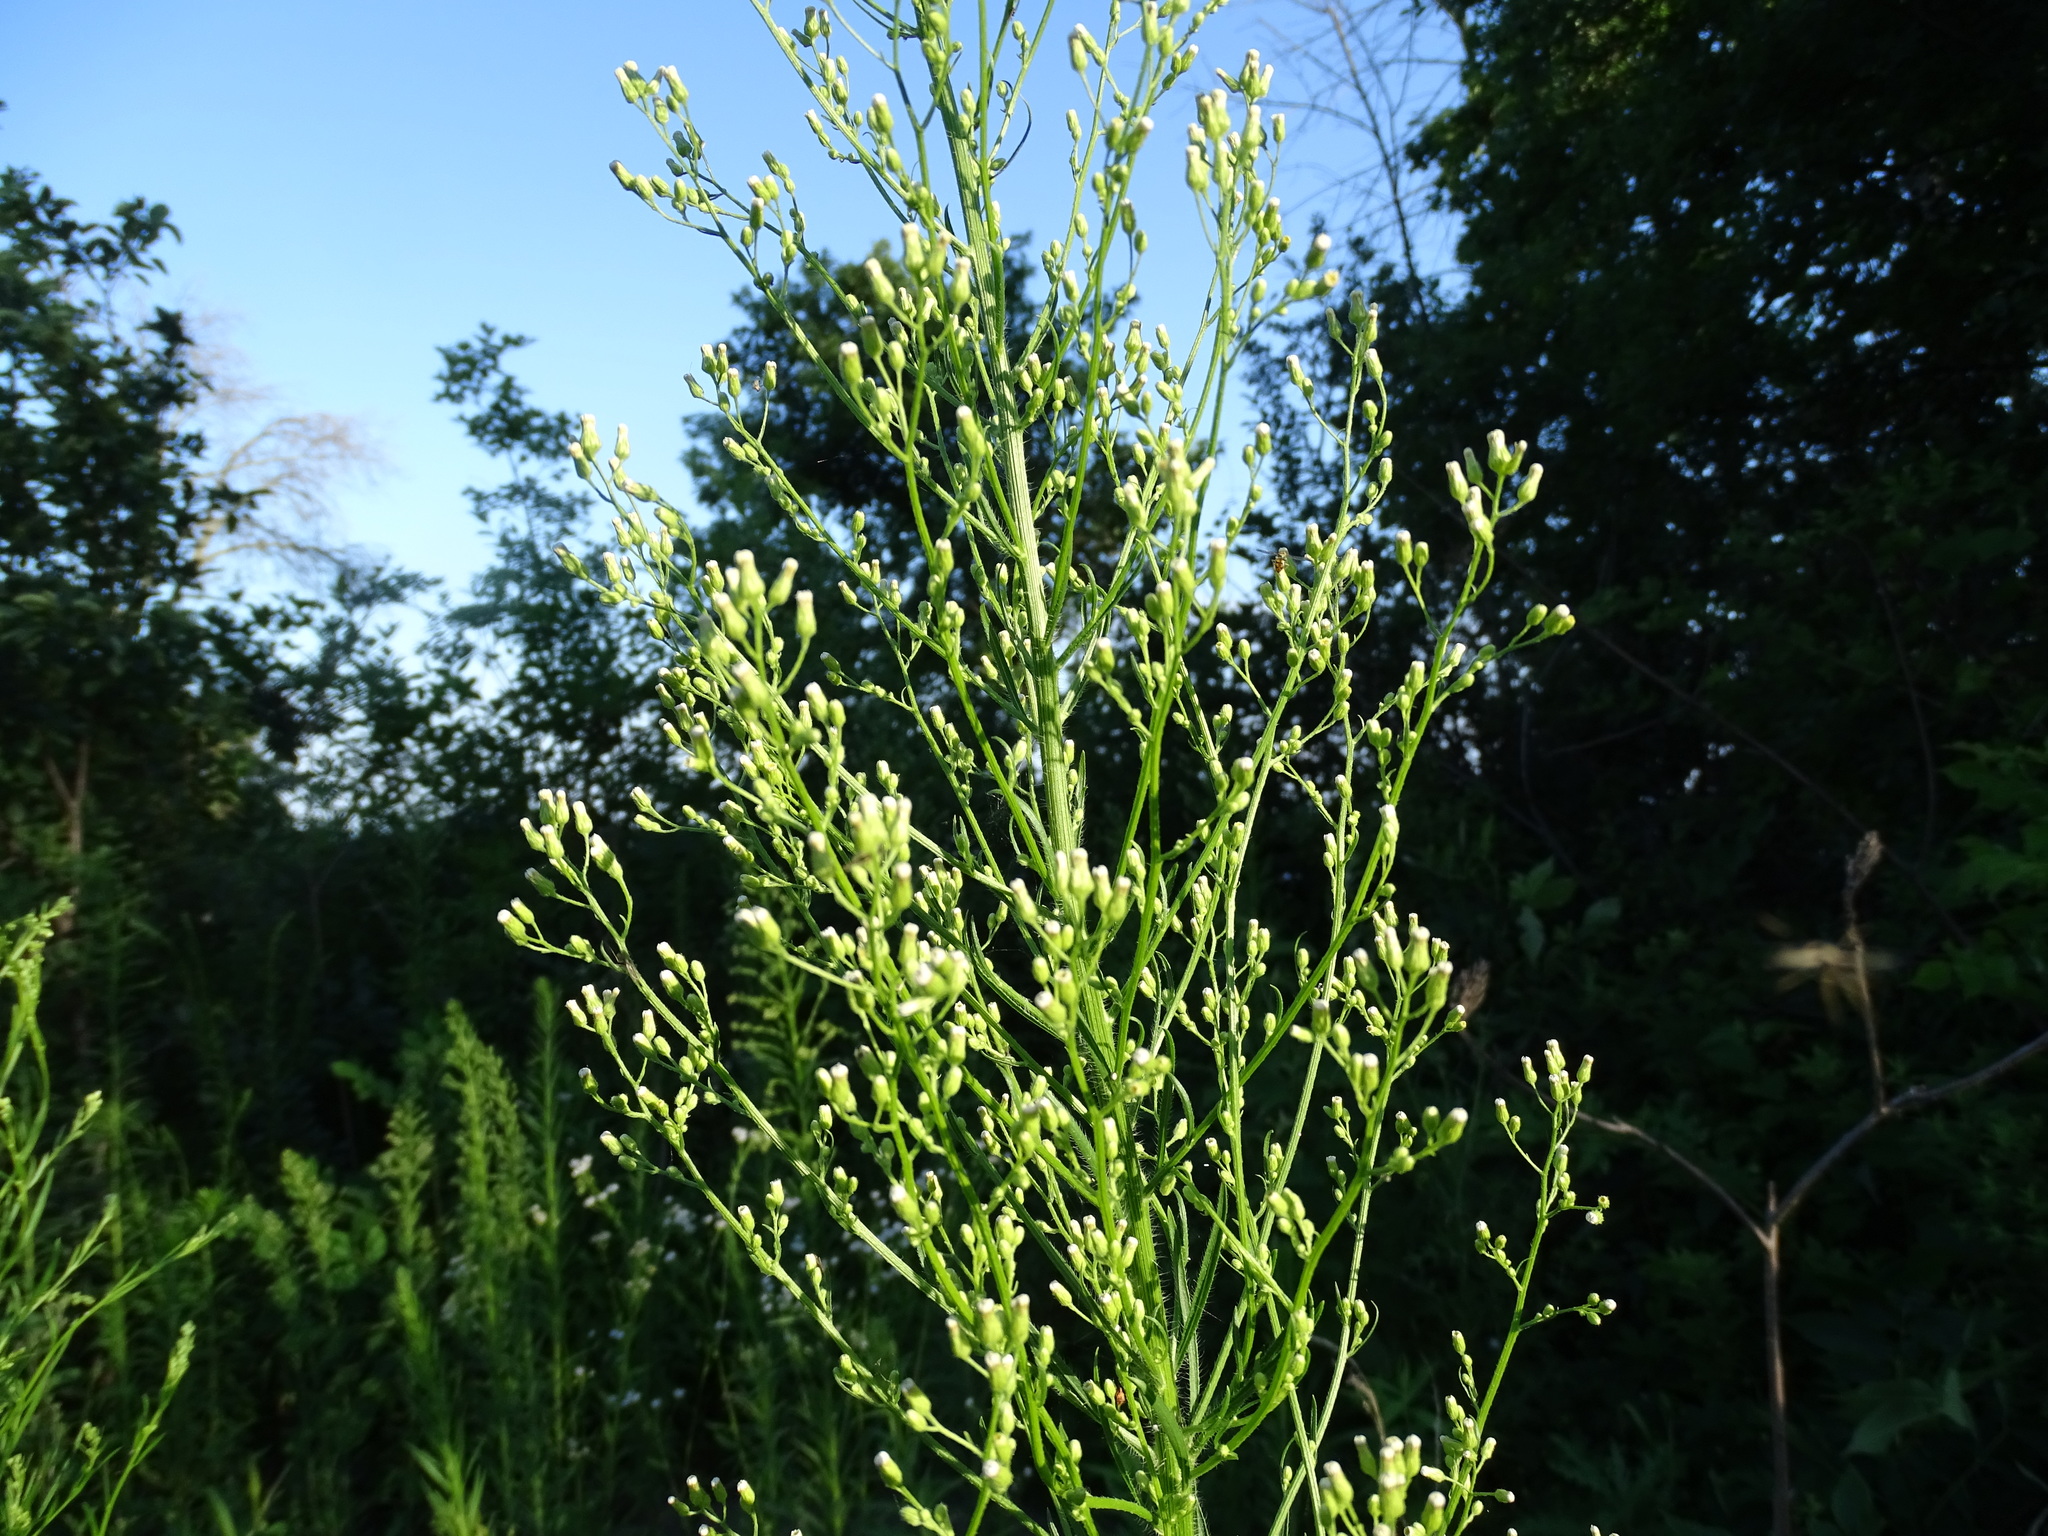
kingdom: Plantae
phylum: Tracheophyta
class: Magnoliopsida
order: Asterales
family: Asteraceae
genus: Erigeron
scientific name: Erigeron canadensis
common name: Canadian fleabane
